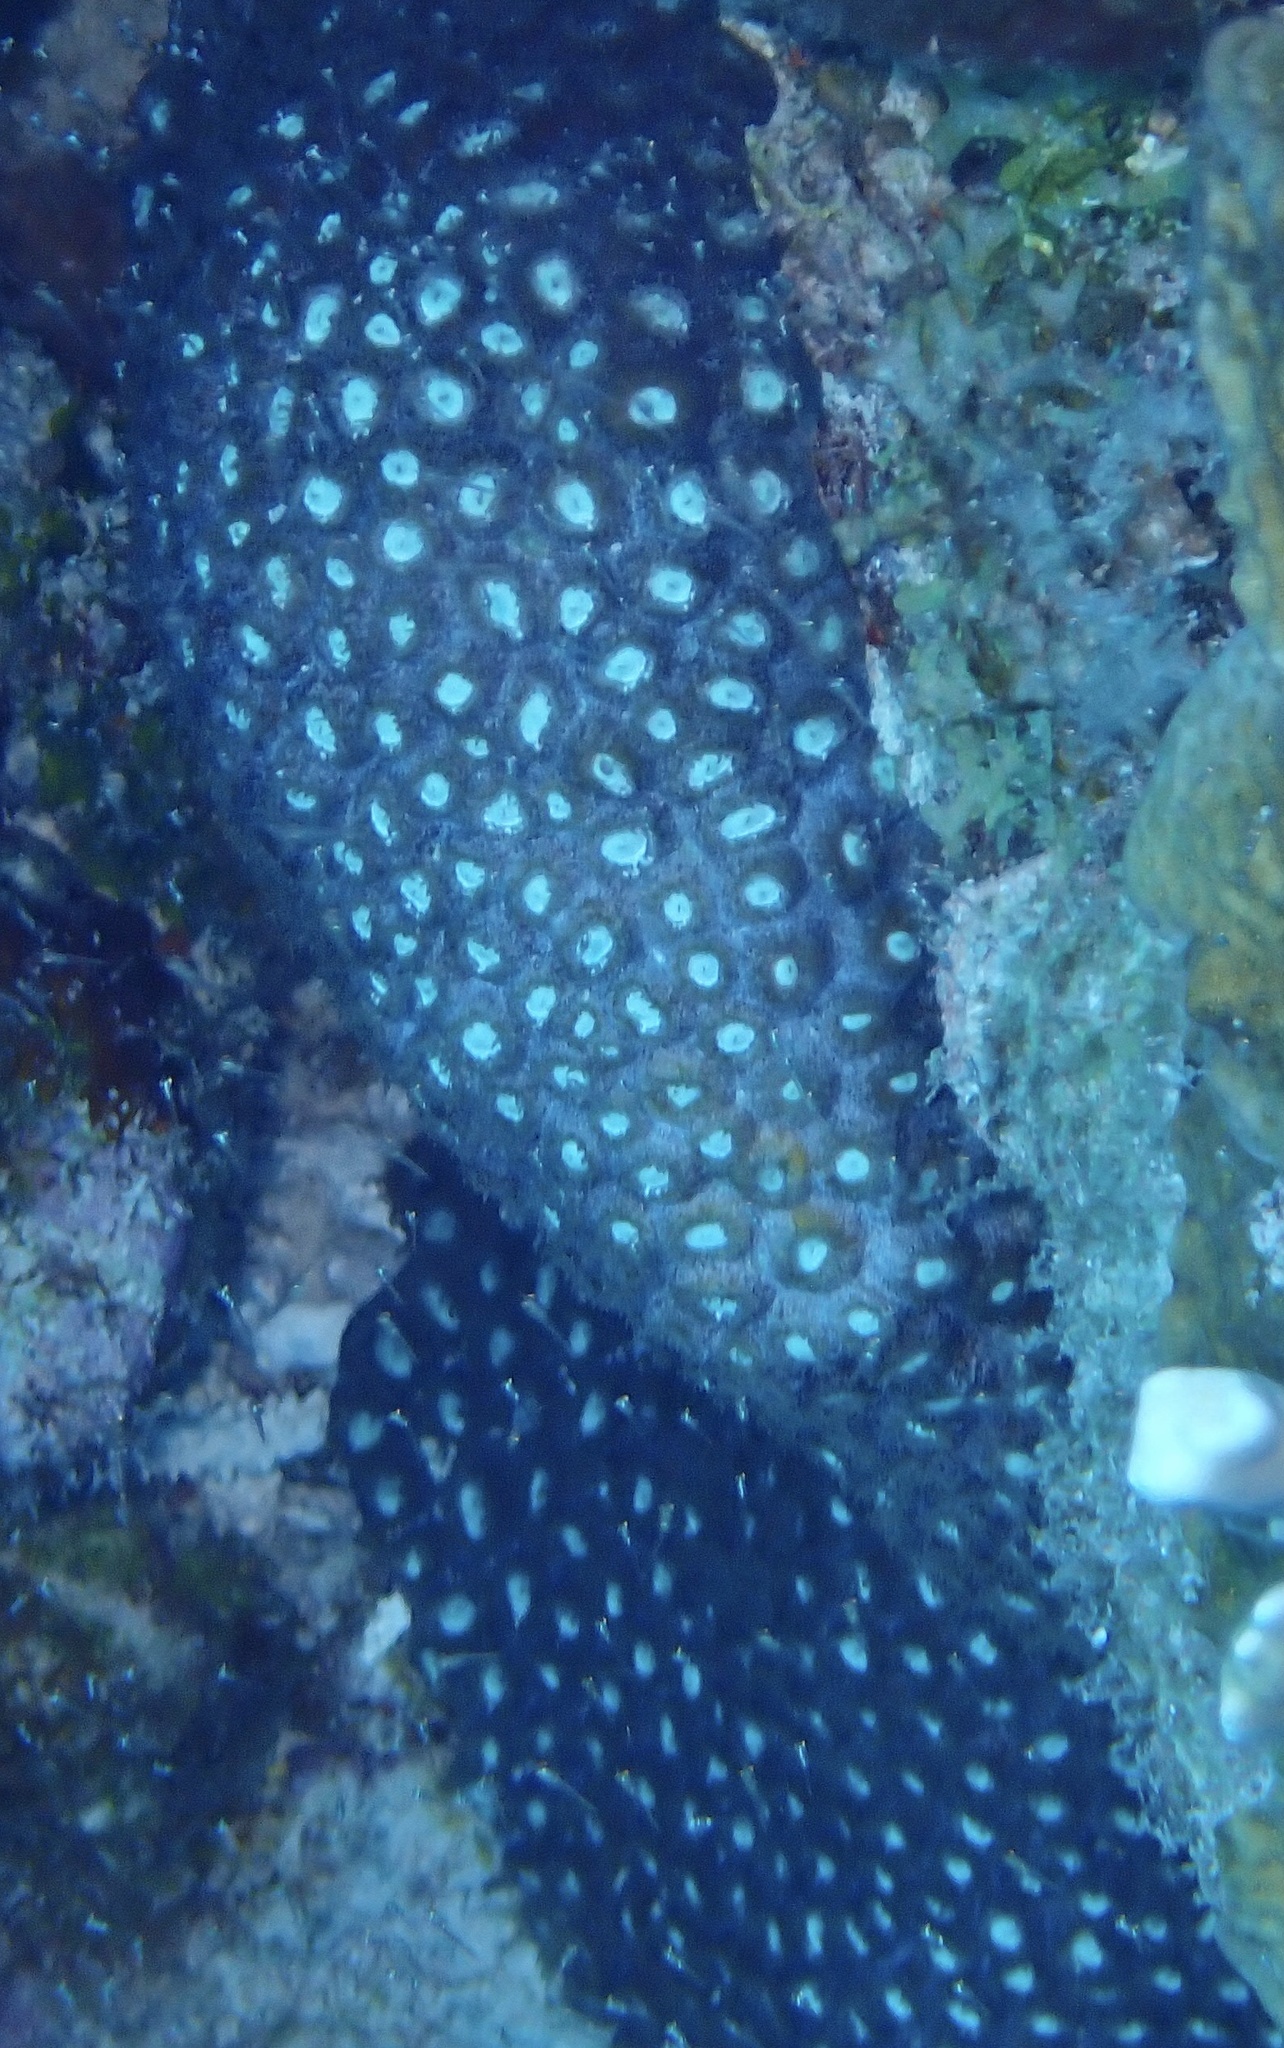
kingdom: Animalia
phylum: Cnidaria
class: Anthozoa
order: Scleractinia
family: Montastraeidae
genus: Montastraea
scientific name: Montastraea cavernosa
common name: Great star coral
